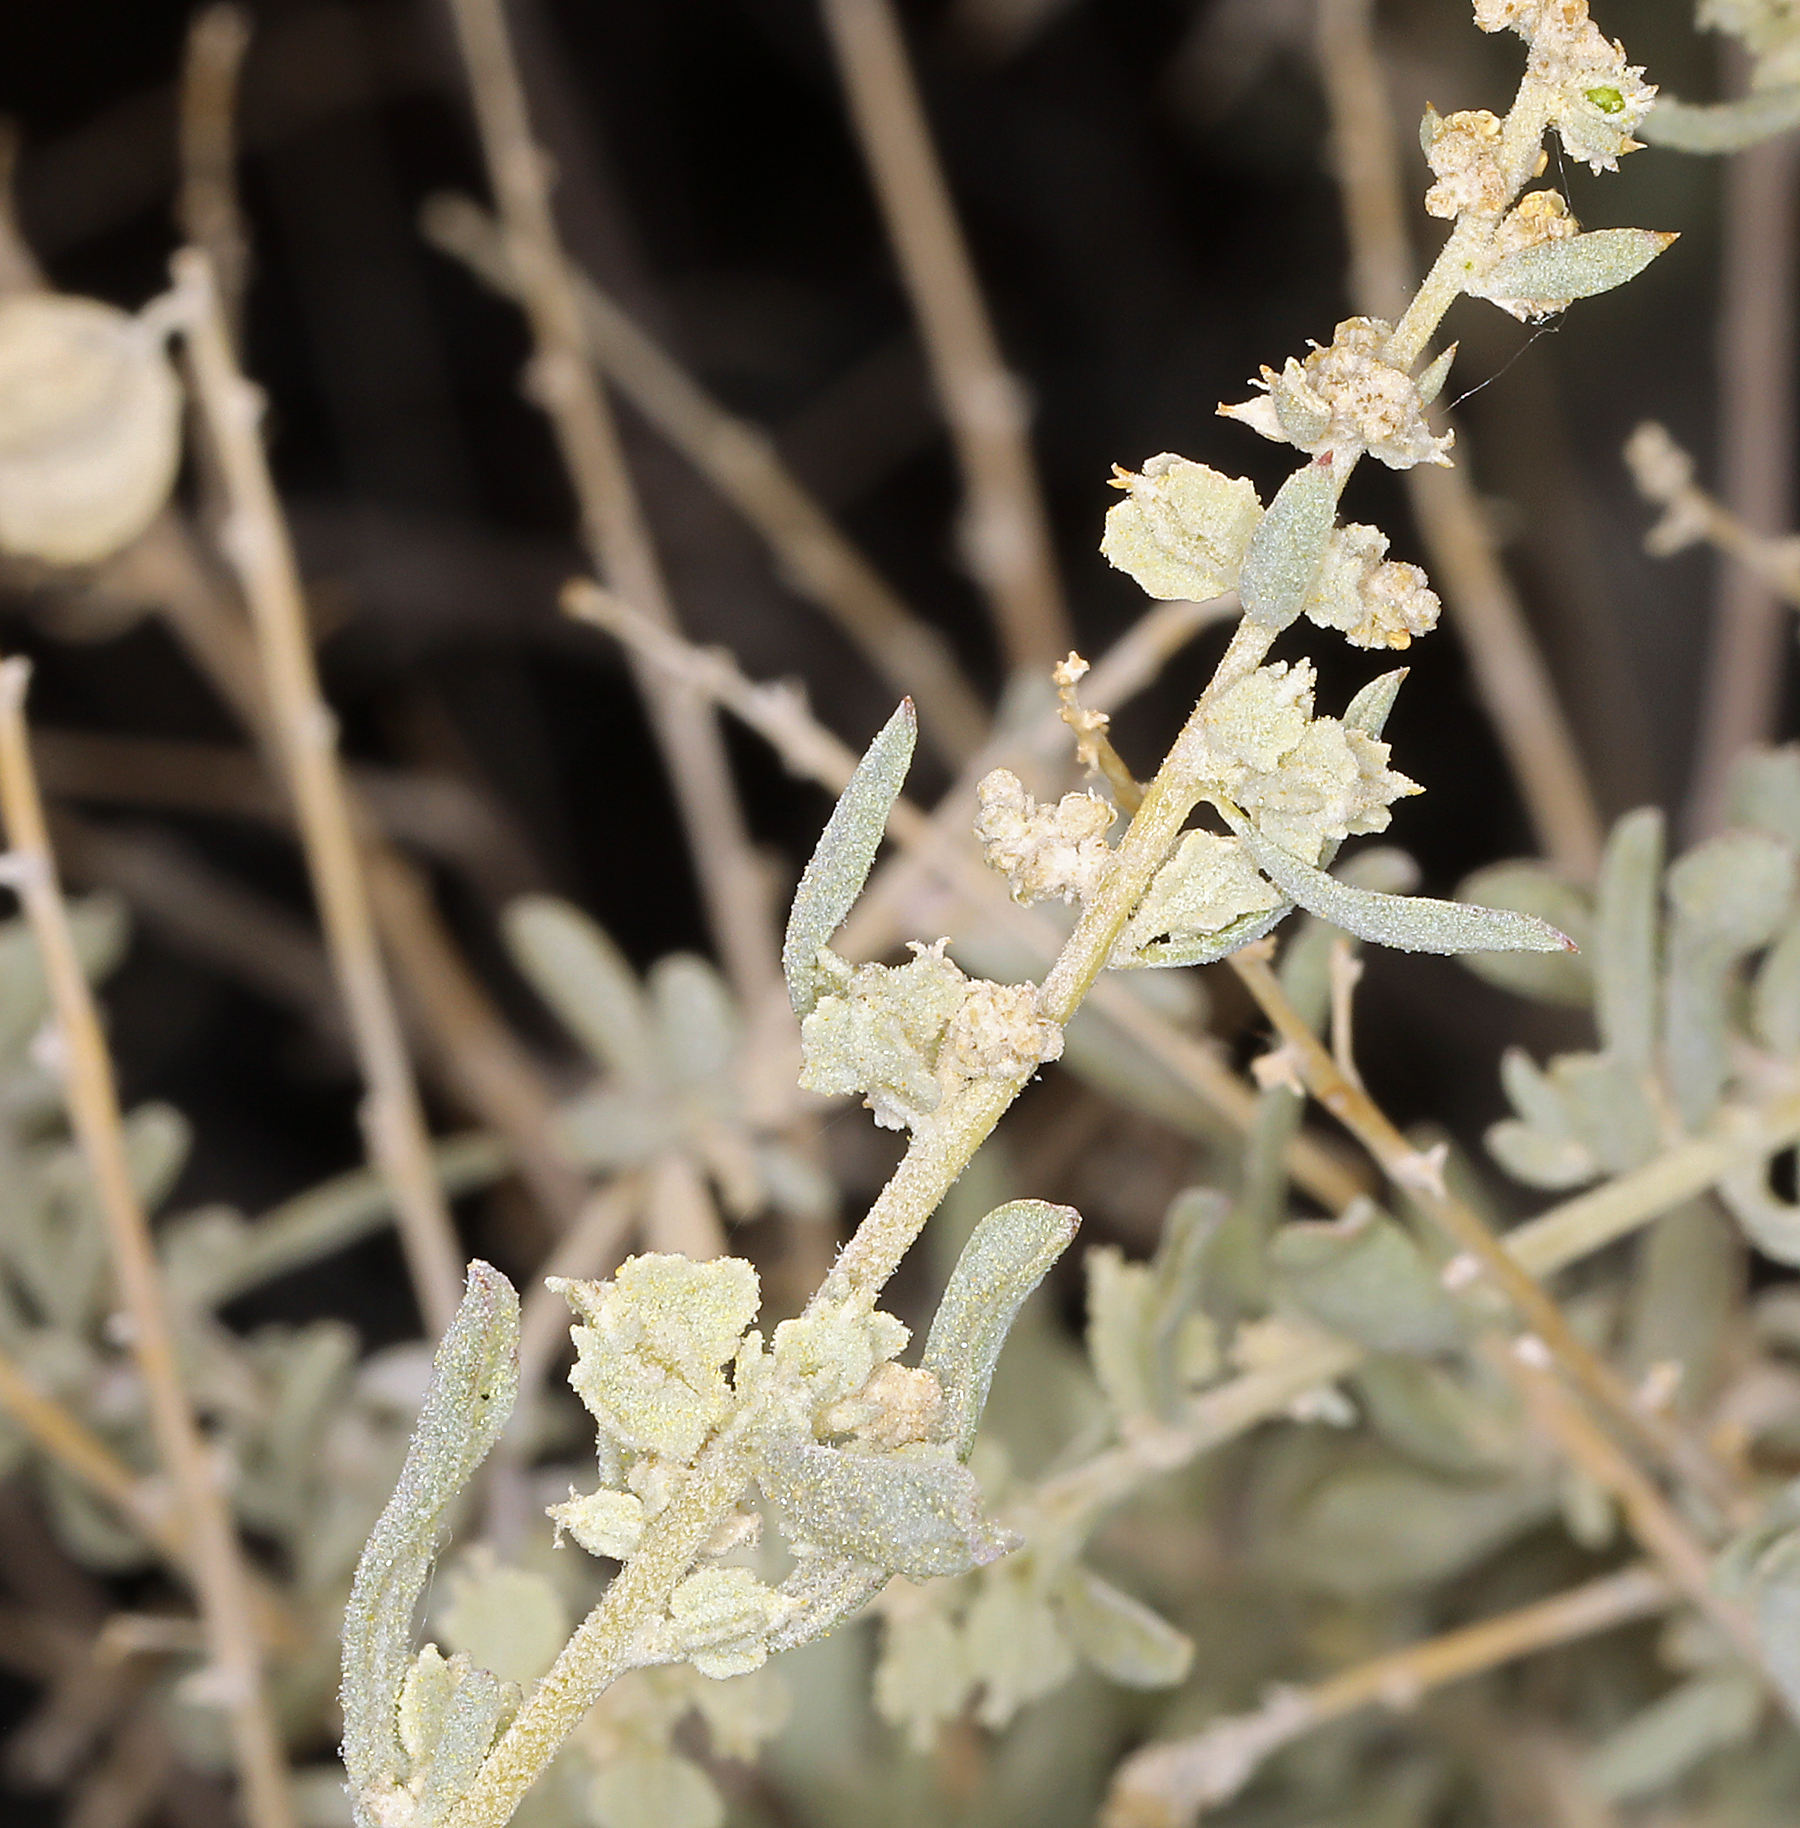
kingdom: Plantae
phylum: Tracheophyta
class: Magnoliopsida
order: Caryophyllales
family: Amaranthaceae
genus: Atriplex
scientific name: Atriplex canescens
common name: Four-wing saltbush
